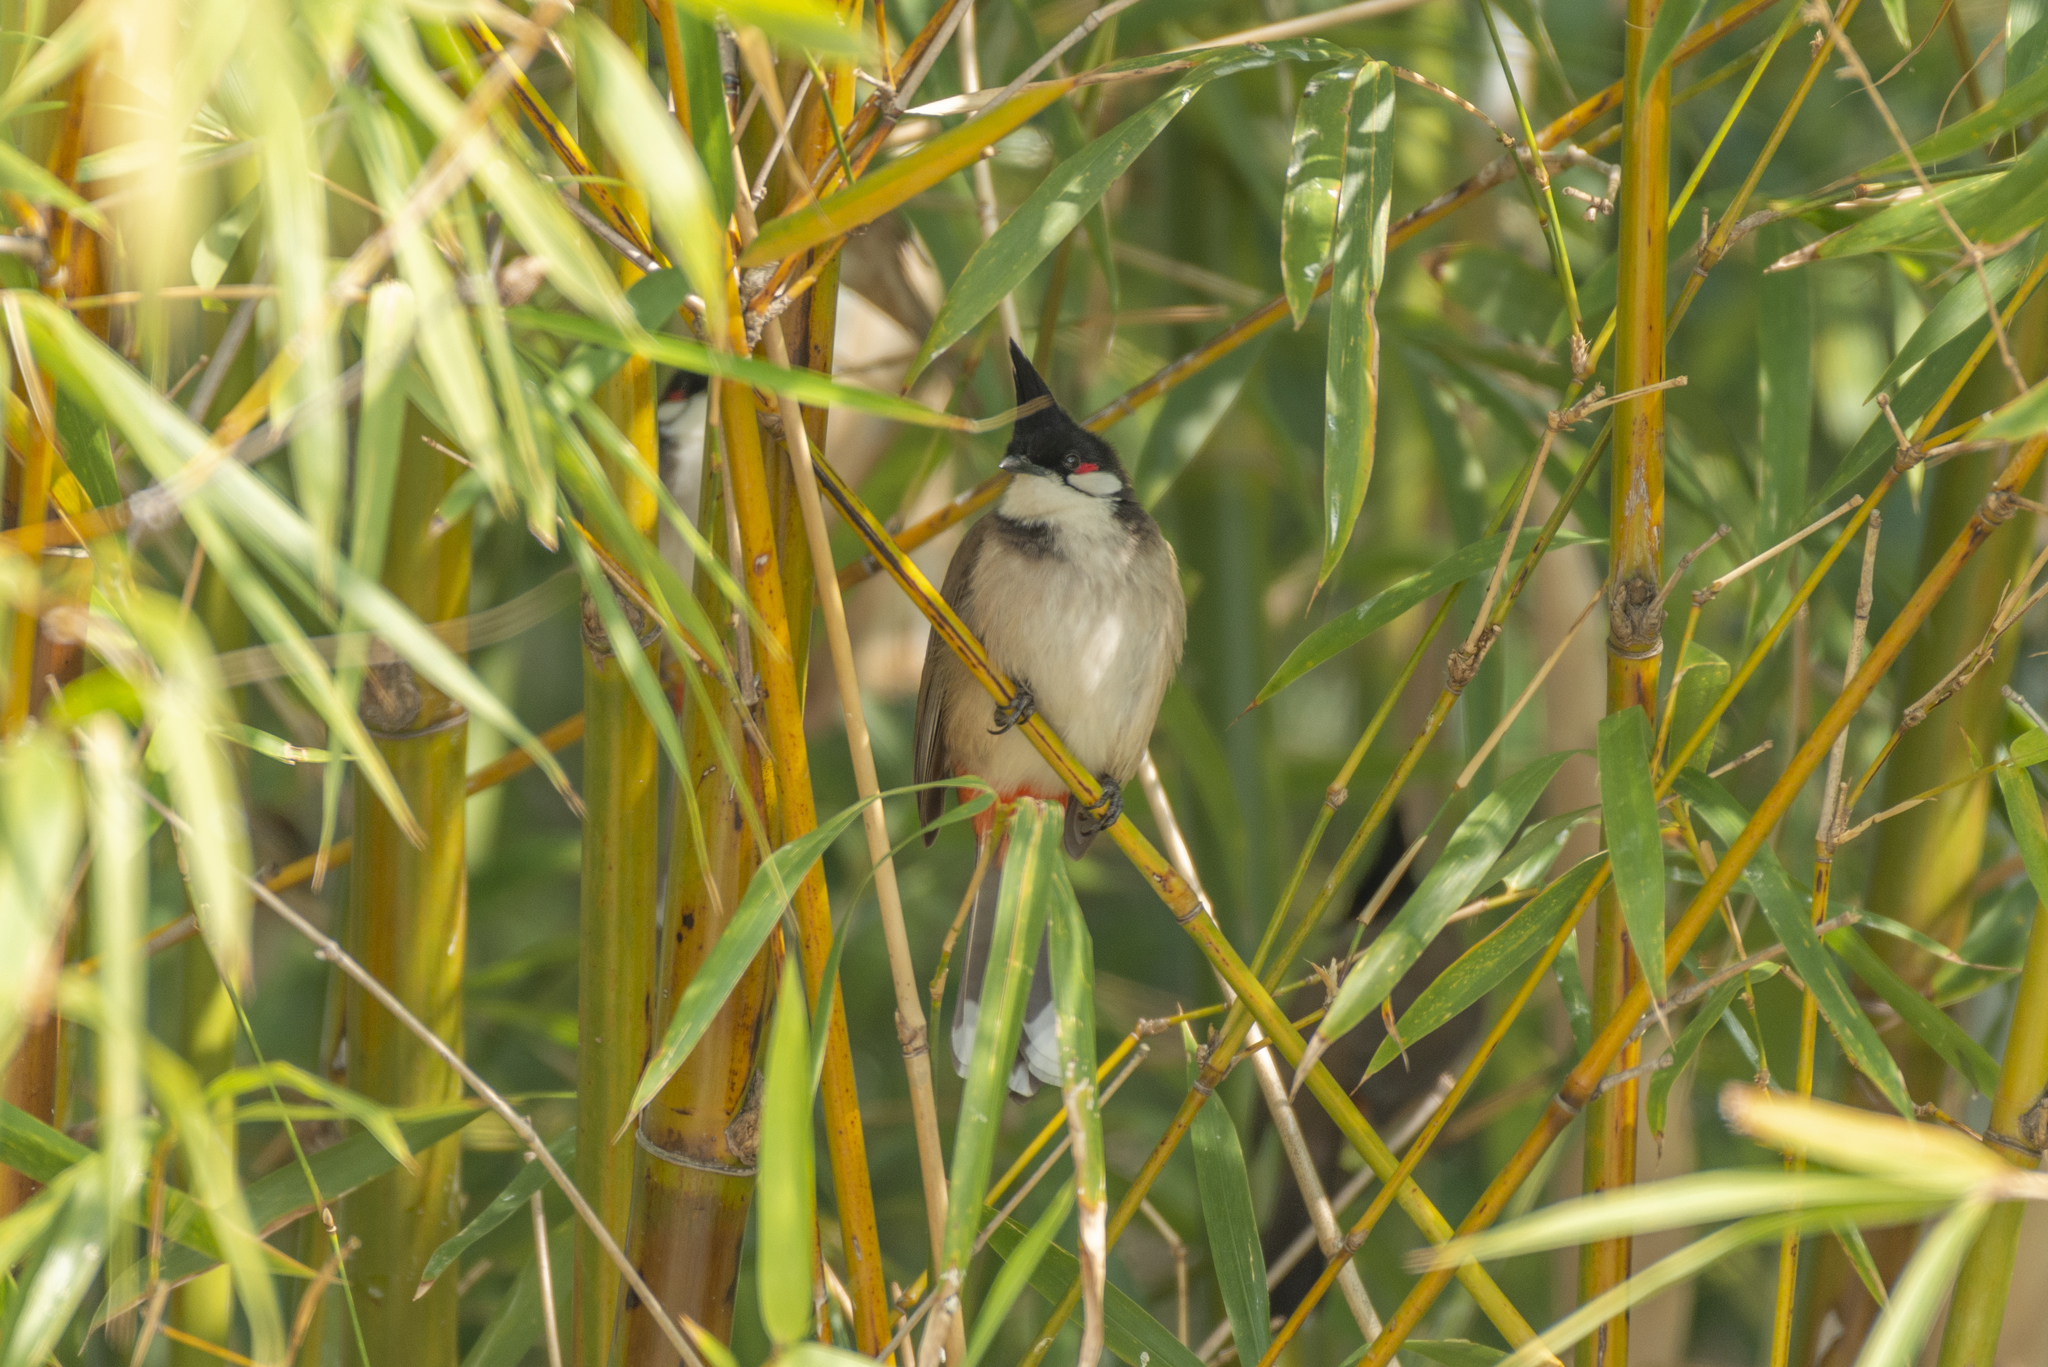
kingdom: Animalia
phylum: Chordata
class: Aves
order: Passeriformes
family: Pycnonotidae
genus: Pycnonotus
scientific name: Pycnonotus jocosus
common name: Red-whiskered bulbul
